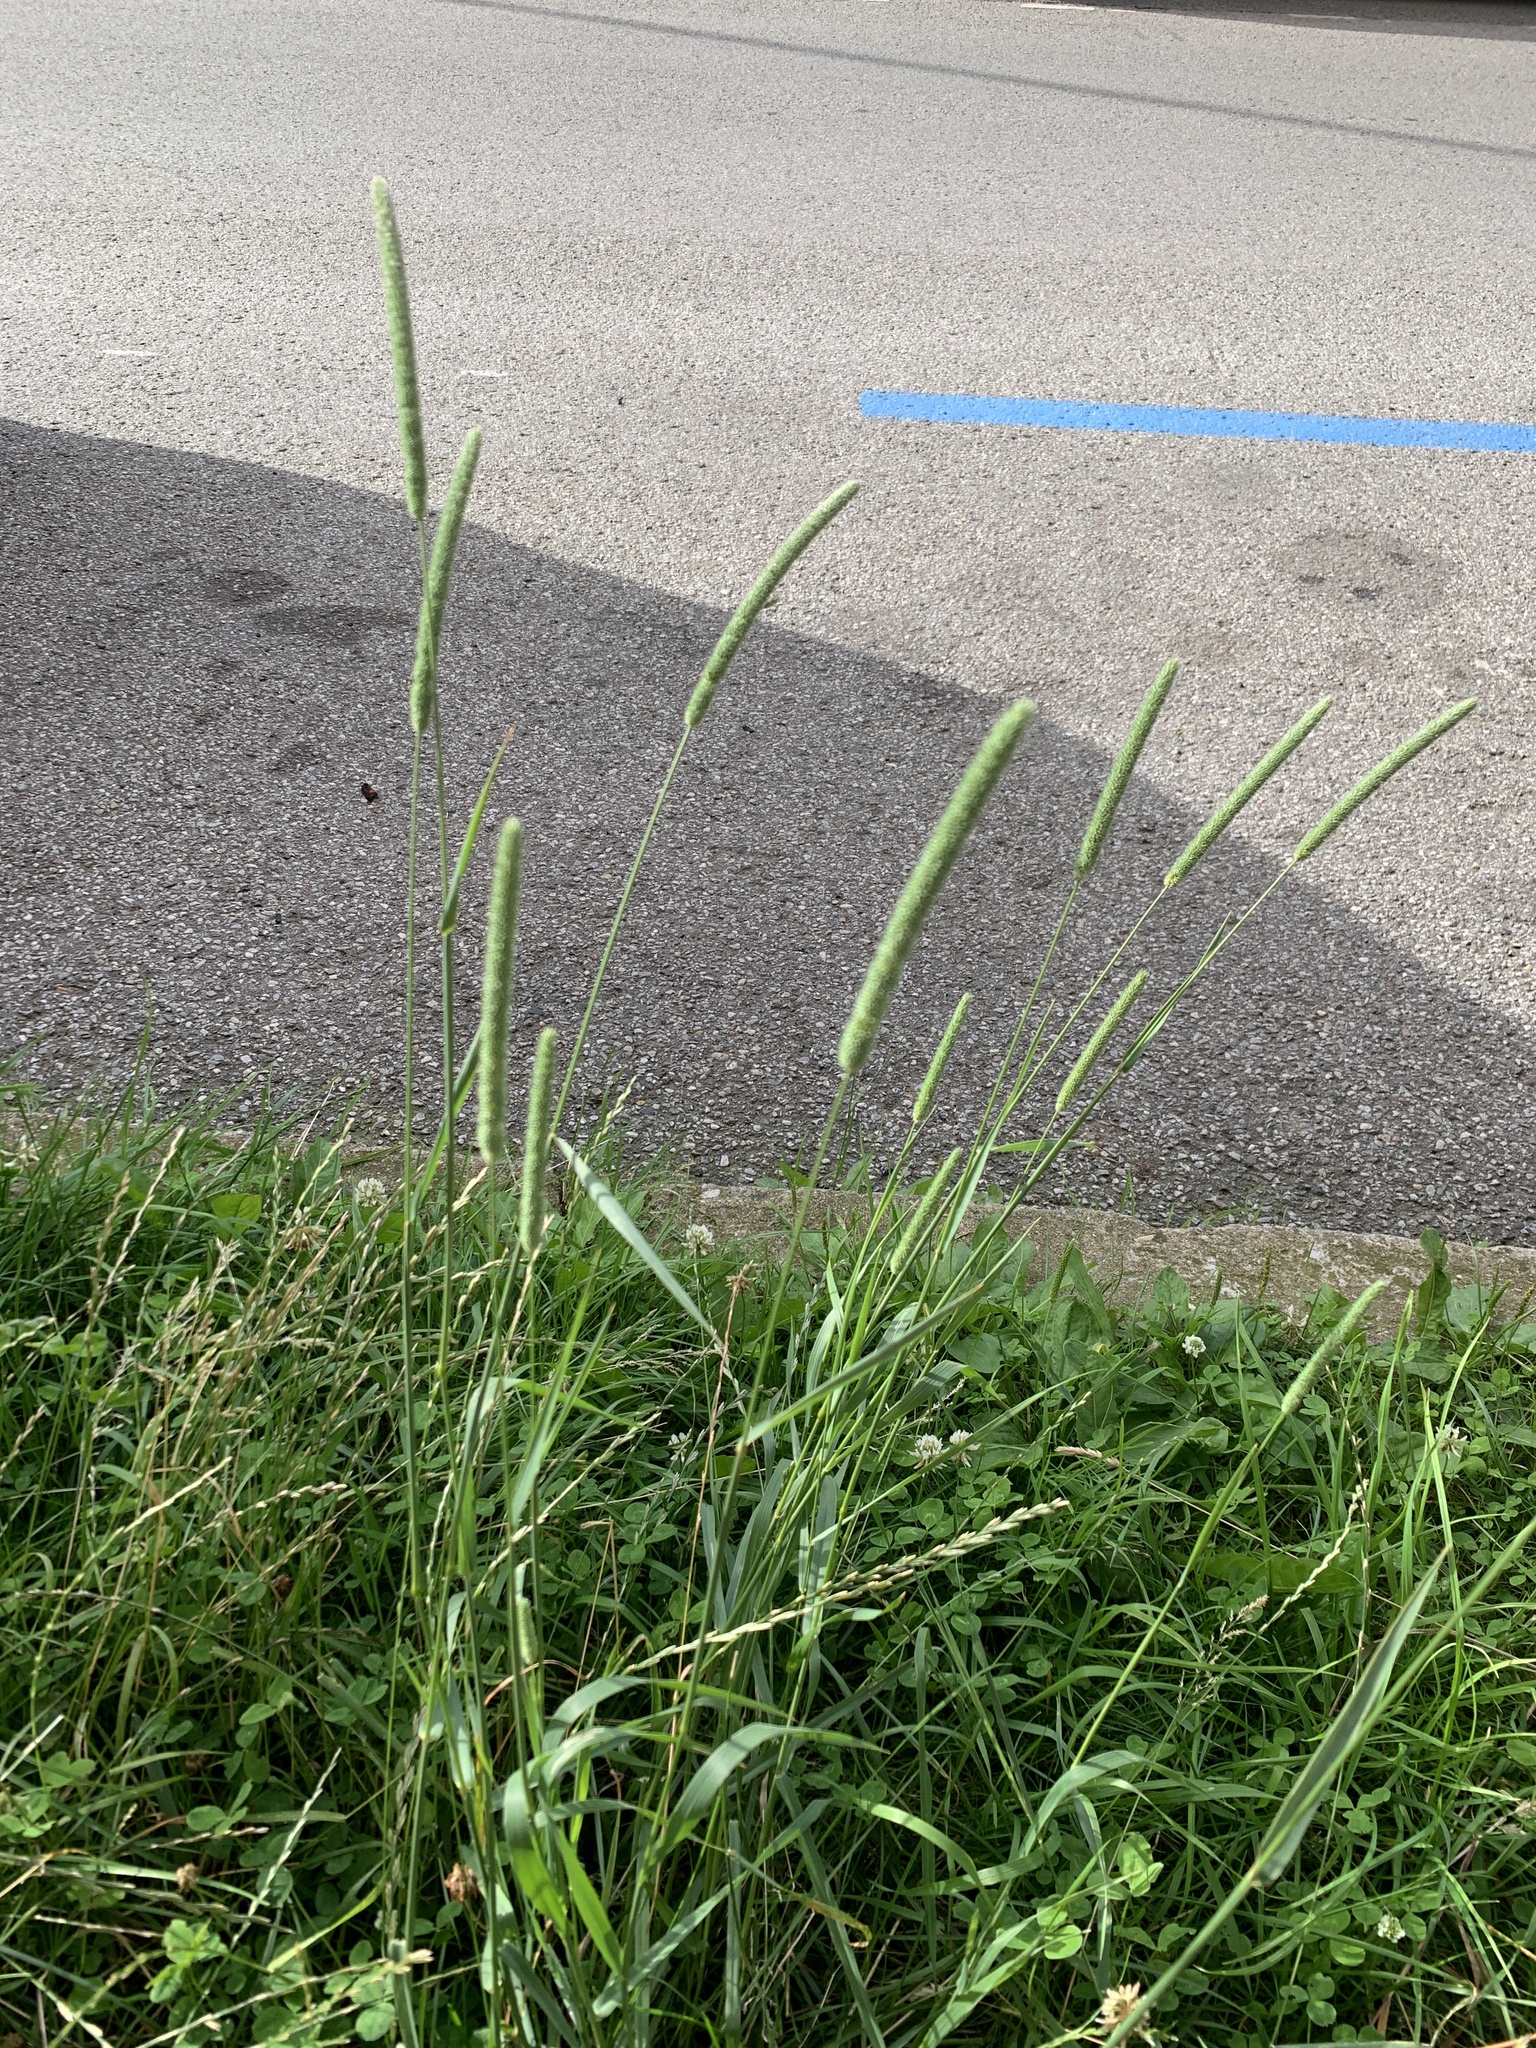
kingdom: Plantae
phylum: Tracheophyta
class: Liliopsida
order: Poales
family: Poaceae
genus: Phleum
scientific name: Phleum pratense
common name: Timothy grass
